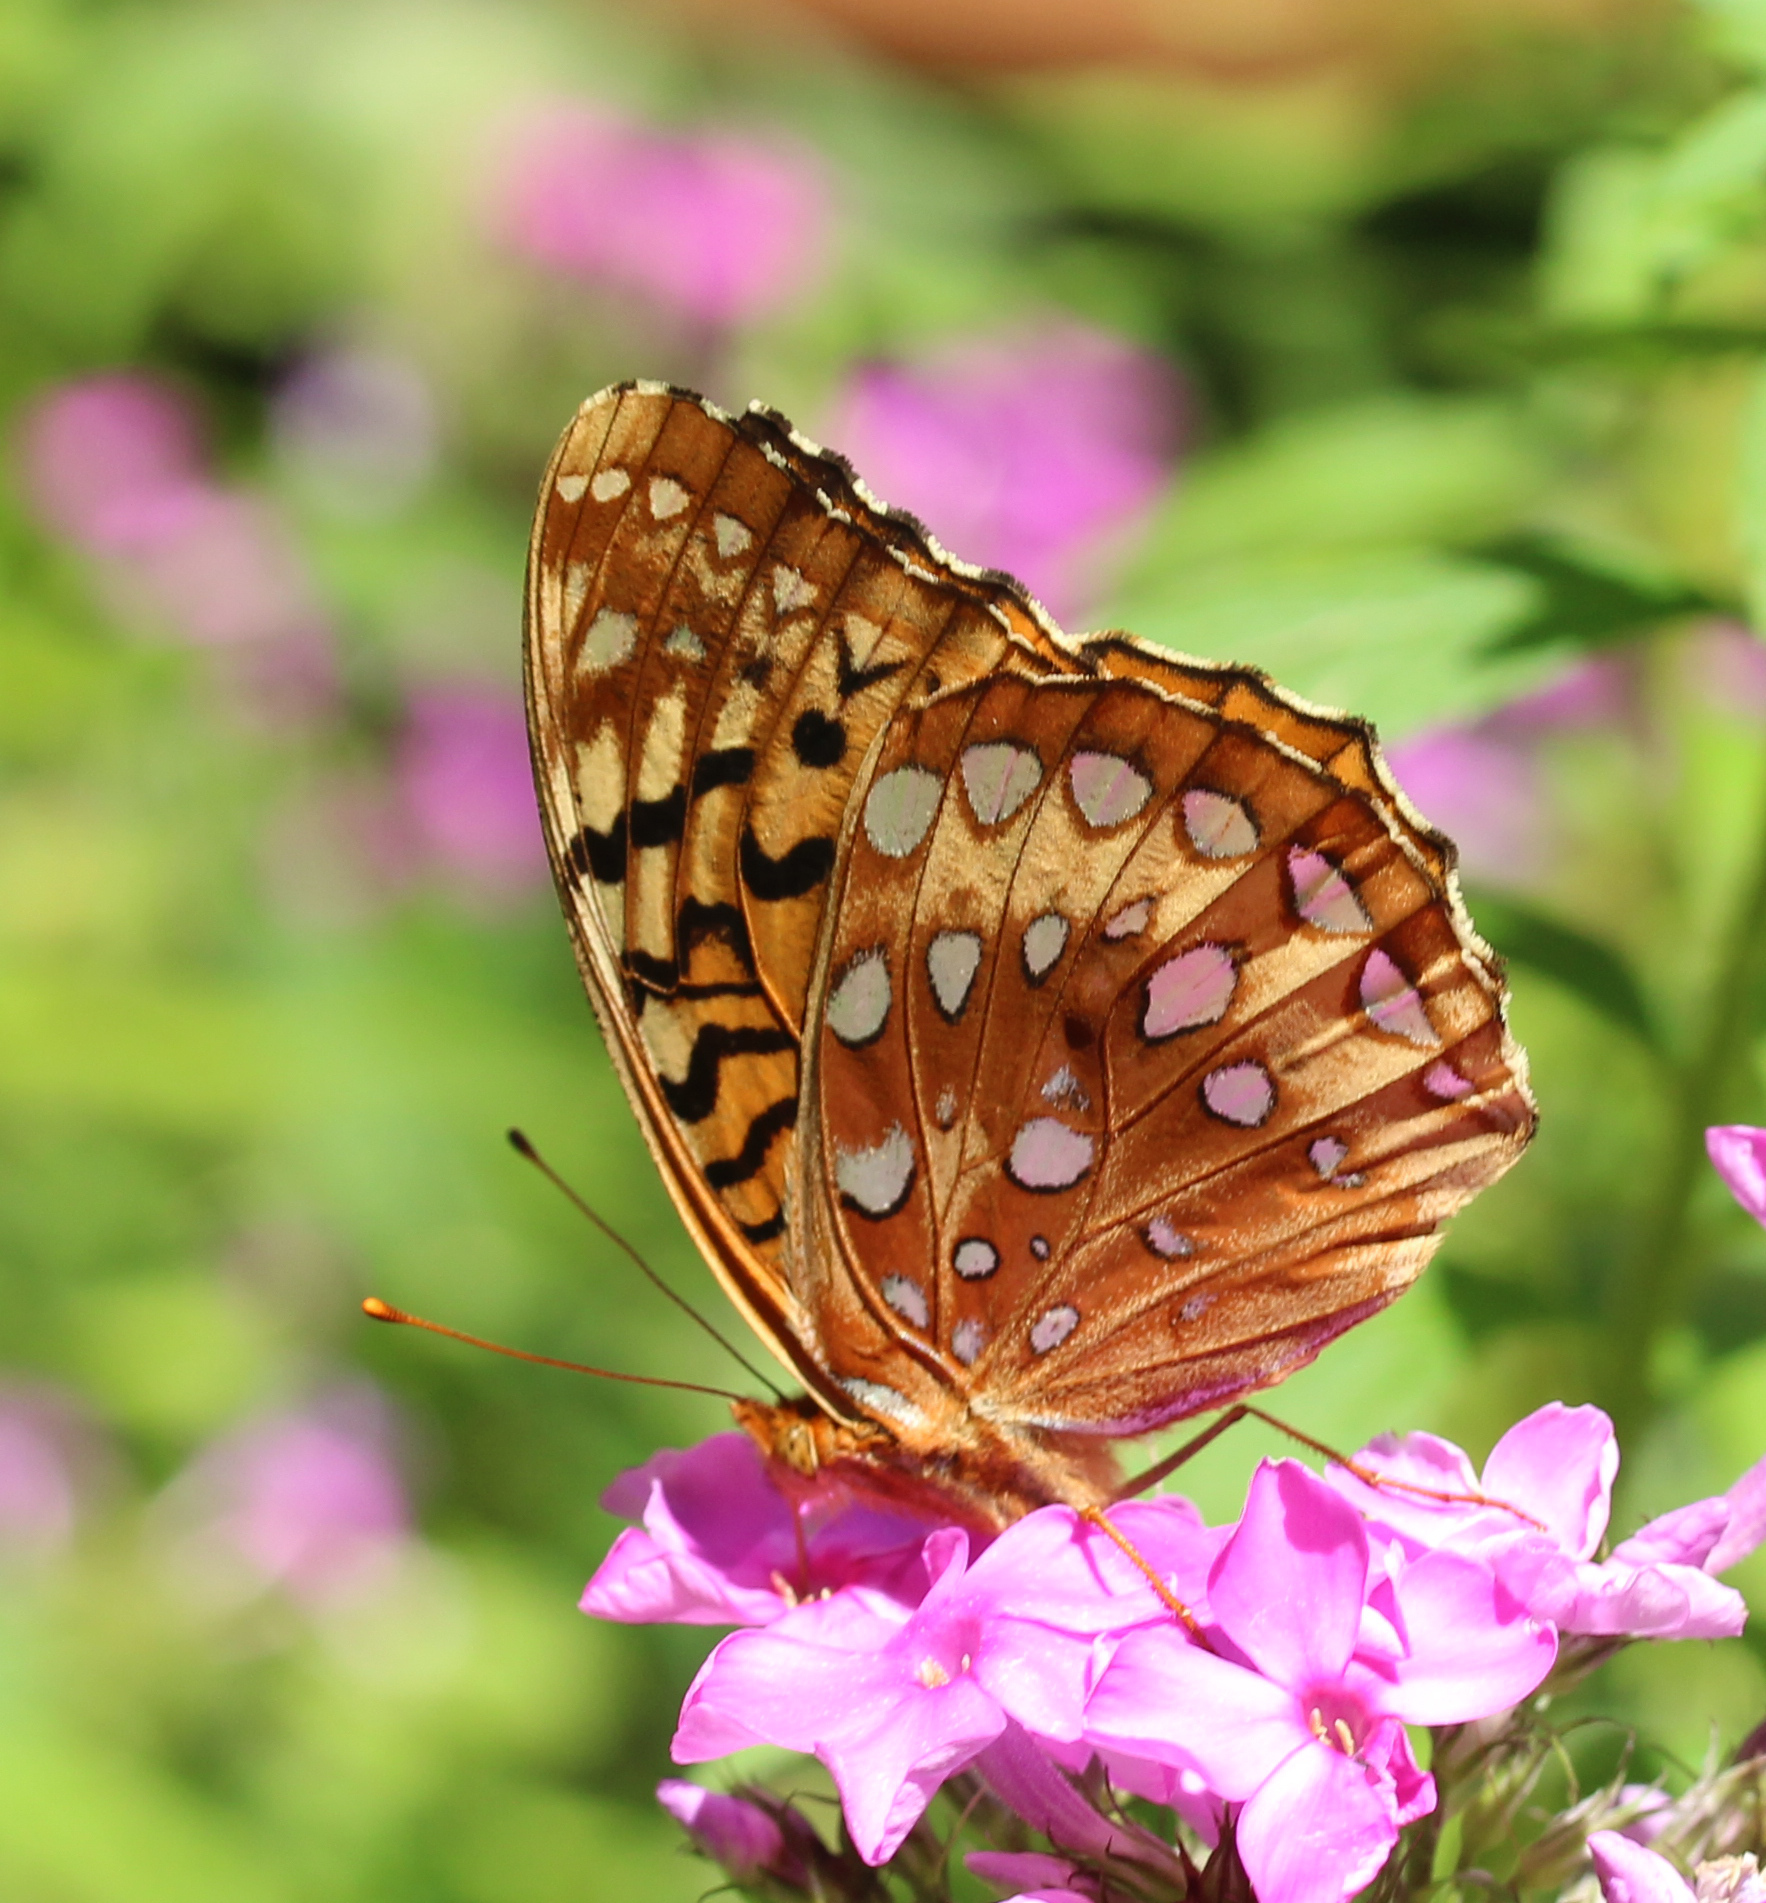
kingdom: Animalia
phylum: Arthropoda
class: Insecta
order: Lepidoptera
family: Nymphalidae
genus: Speyeria
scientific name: Speyeria cybele
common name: Great spangled fritillary
